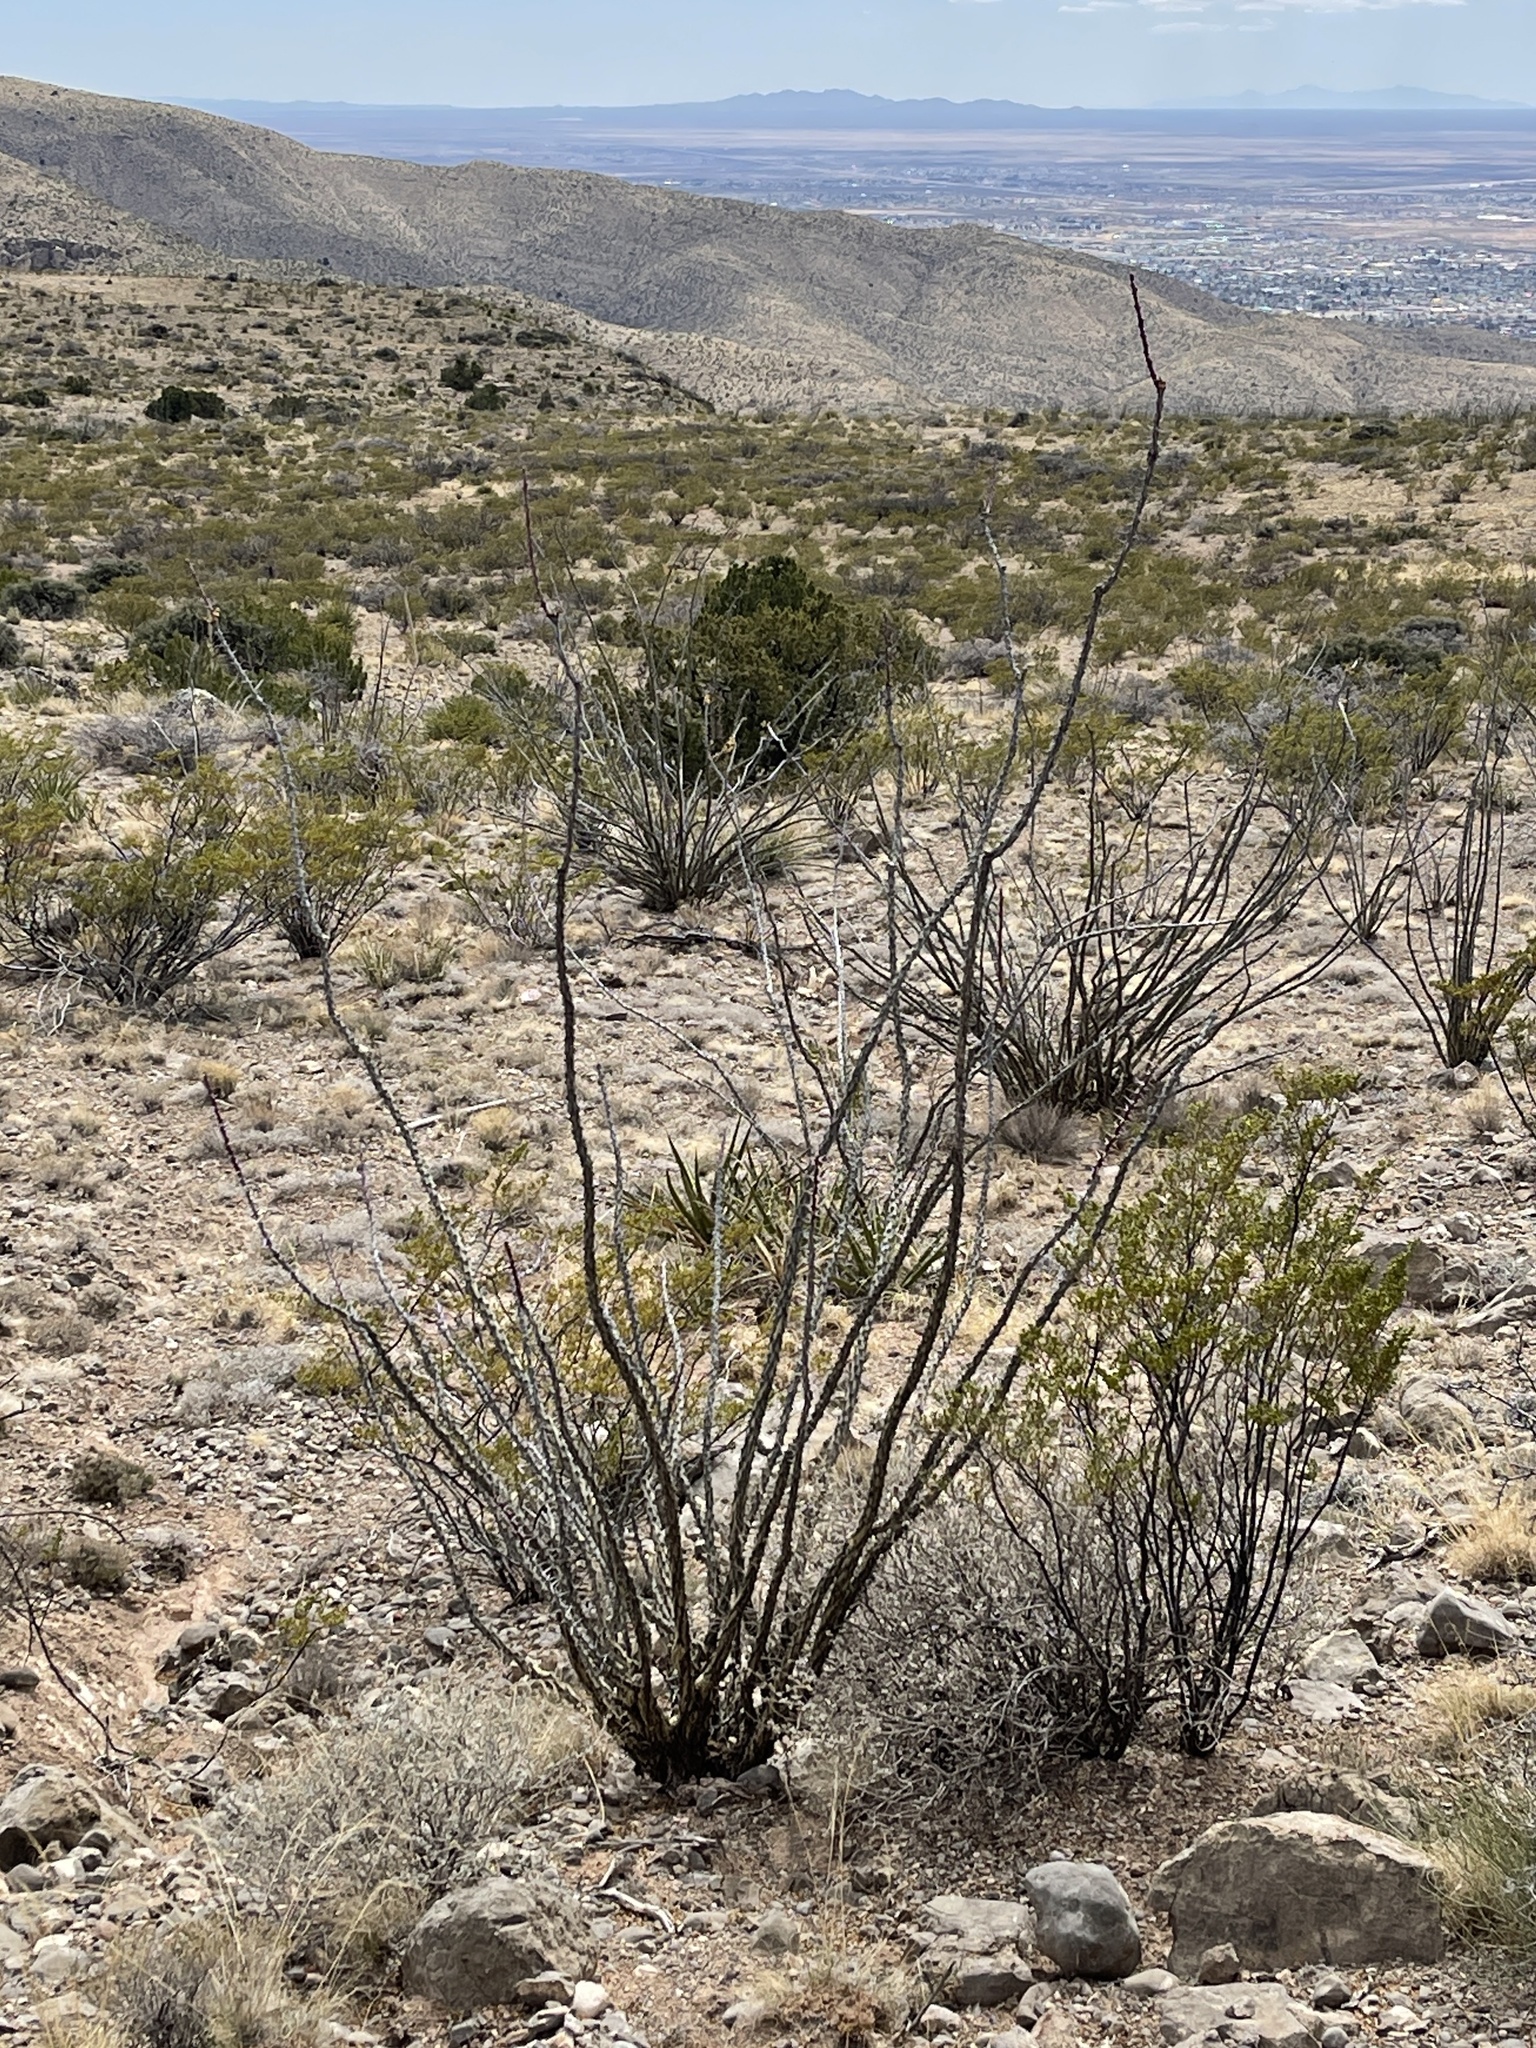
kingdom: Plantae
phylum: Tracheophyta
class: Magnoliopsida
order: Ericales
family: Fouquieriaceae
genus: Fouquieria
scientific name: Fouquieria splendens
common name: Vine-cactus
